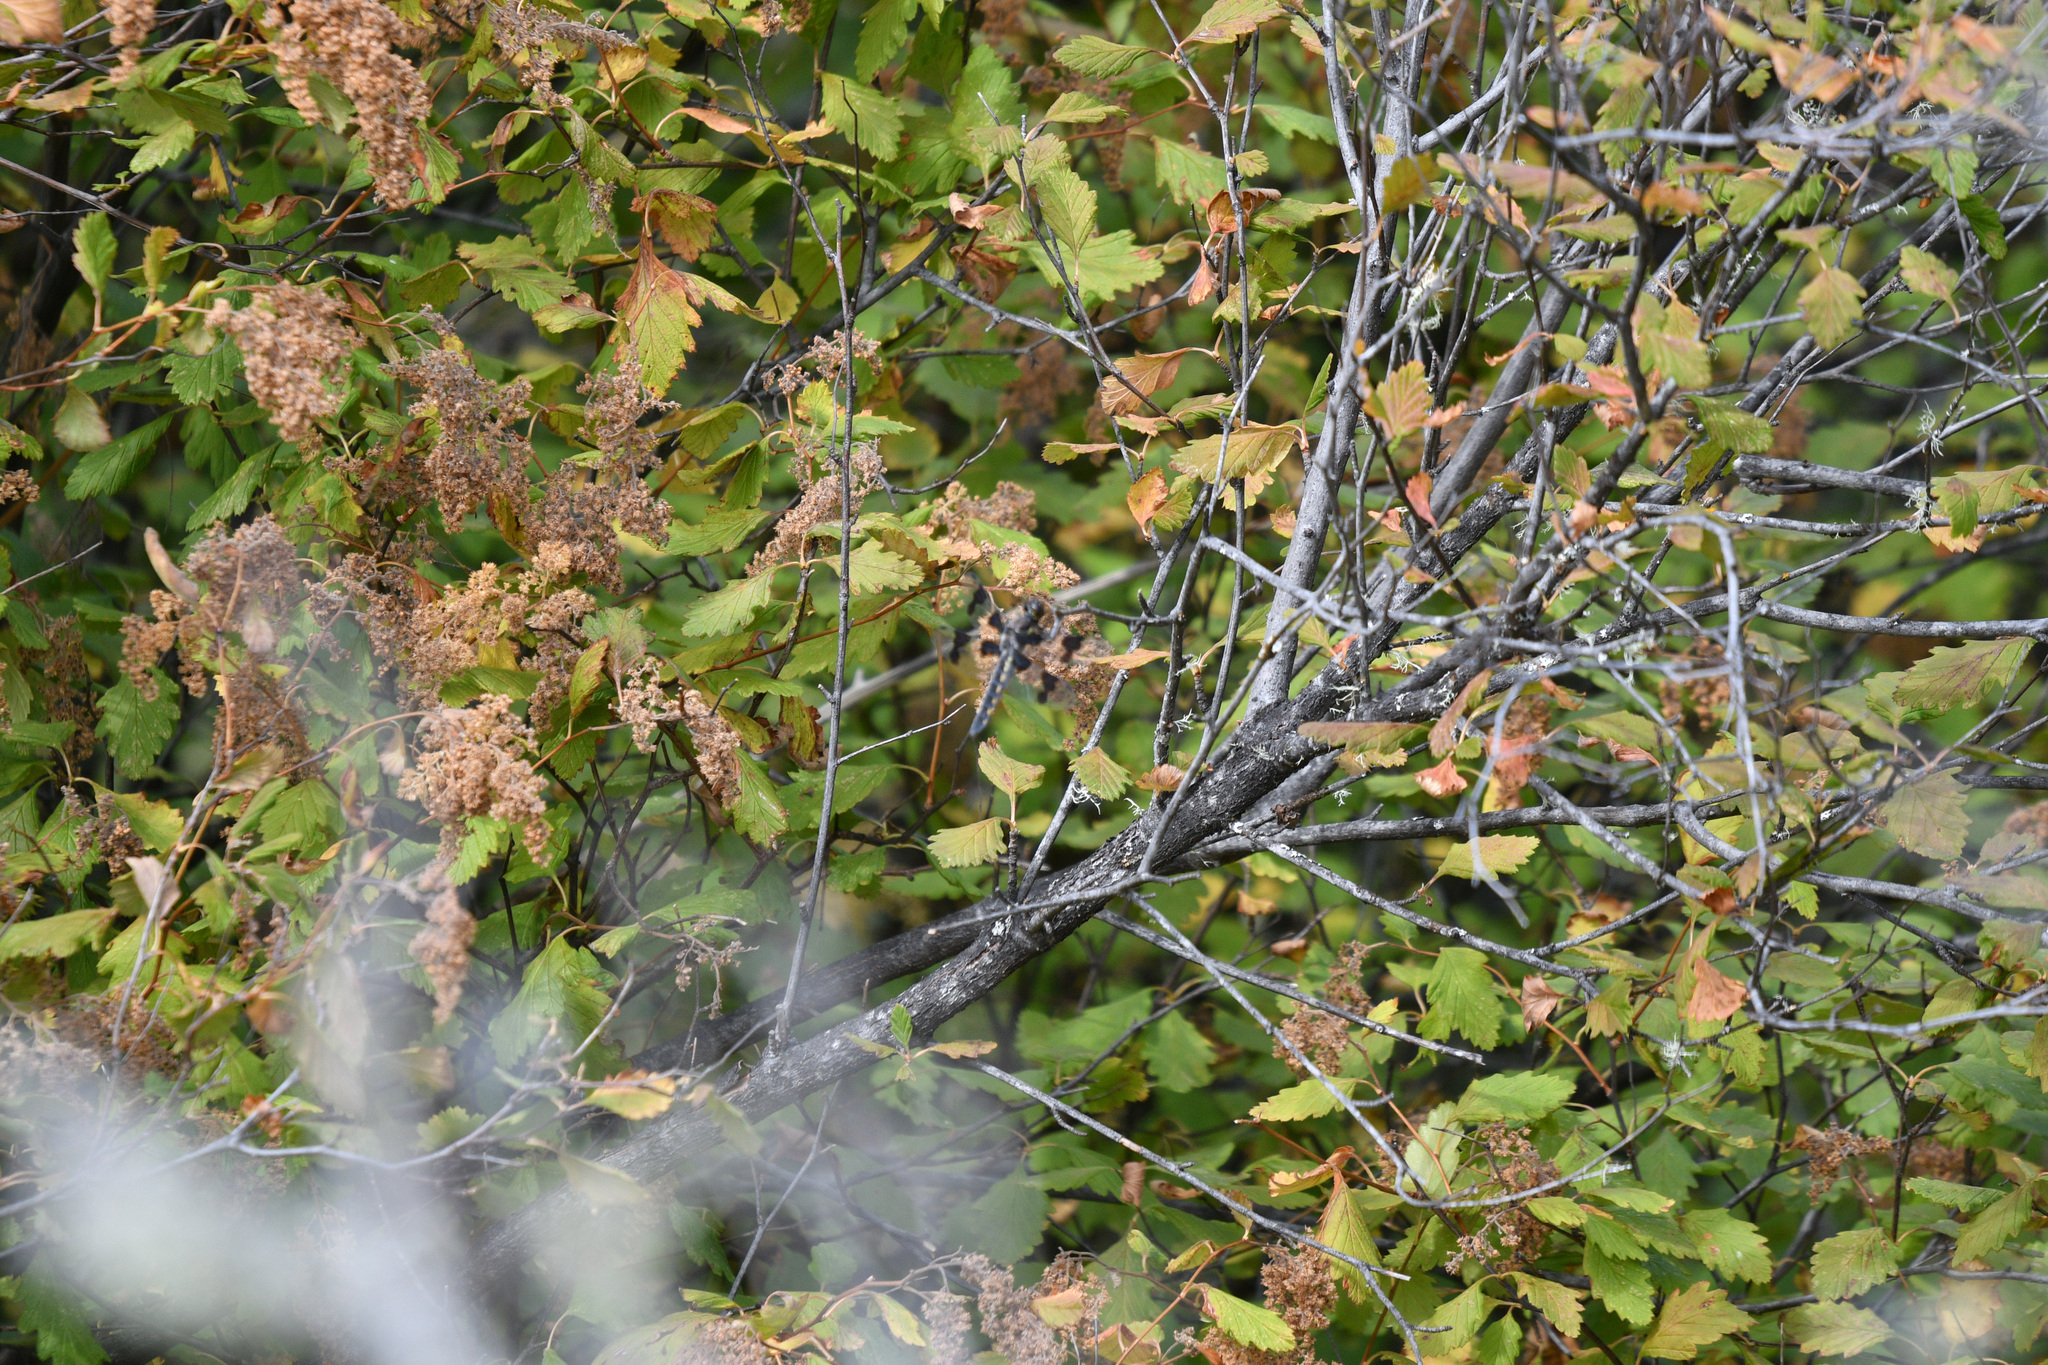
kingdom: Animalia
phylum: Arthropoda
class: Insecta
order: Odonata
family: Libellulidae
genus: Libellula
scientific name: Libellula forensis
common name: Eight-spotted skimmer
